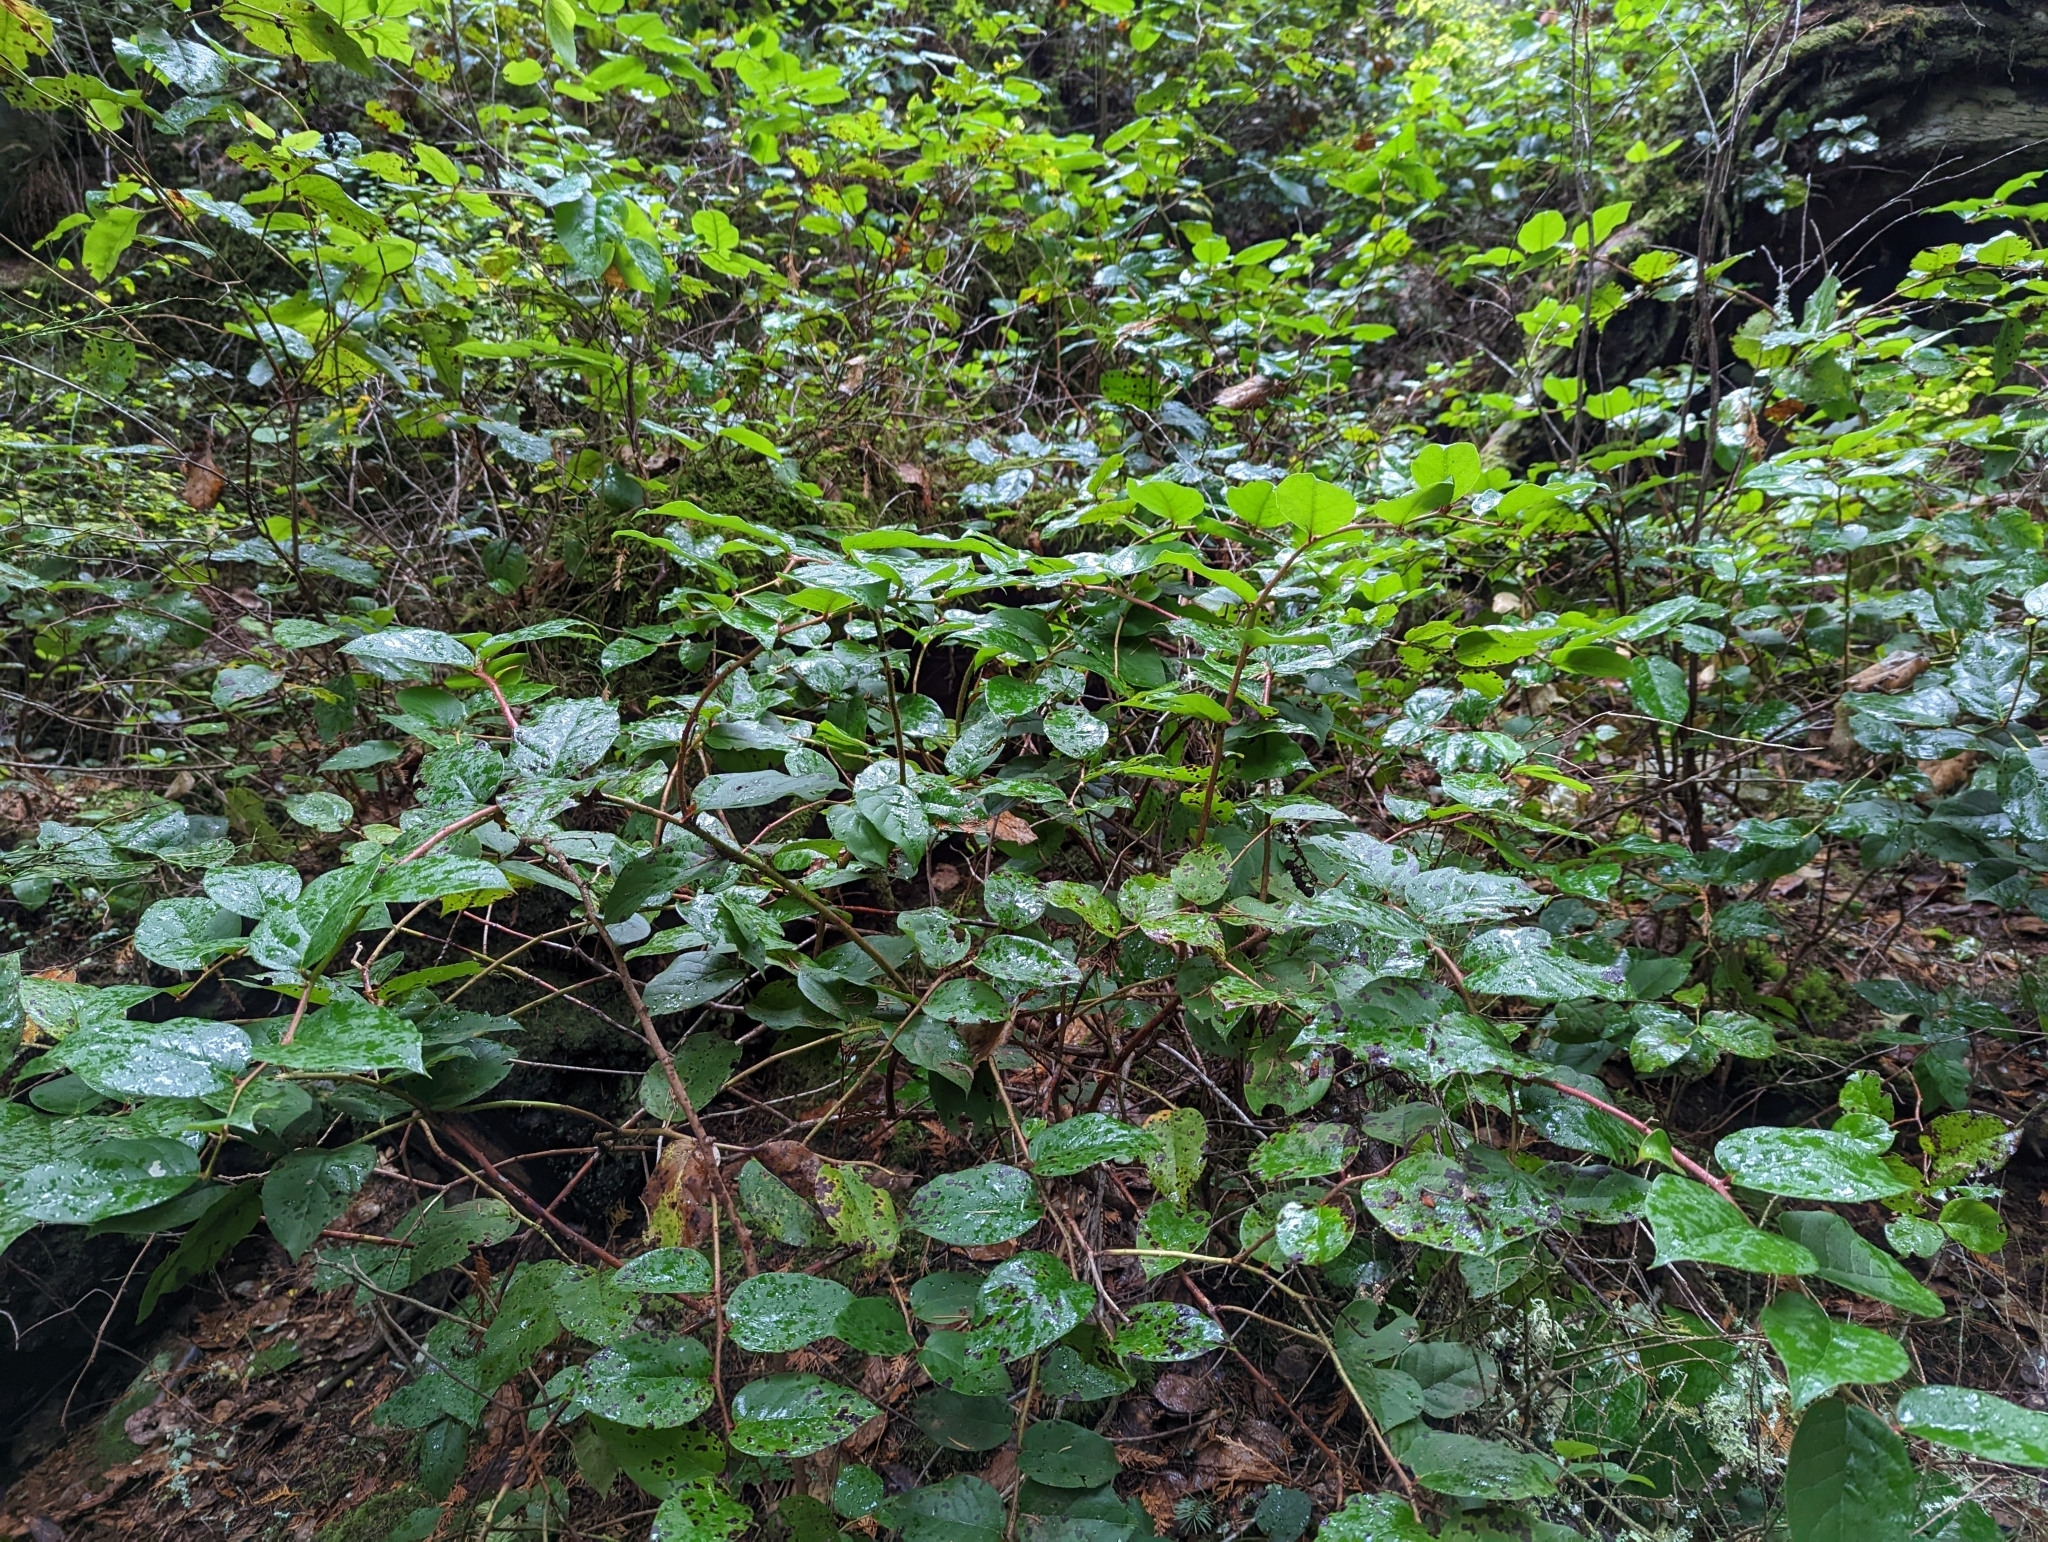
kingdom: Plantae
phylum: Tracheophyta
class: Magnoliopsida
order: Ericales
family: Ericaceae
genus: Gaultheria
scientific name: Gaultheria shallon
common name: Shallon
